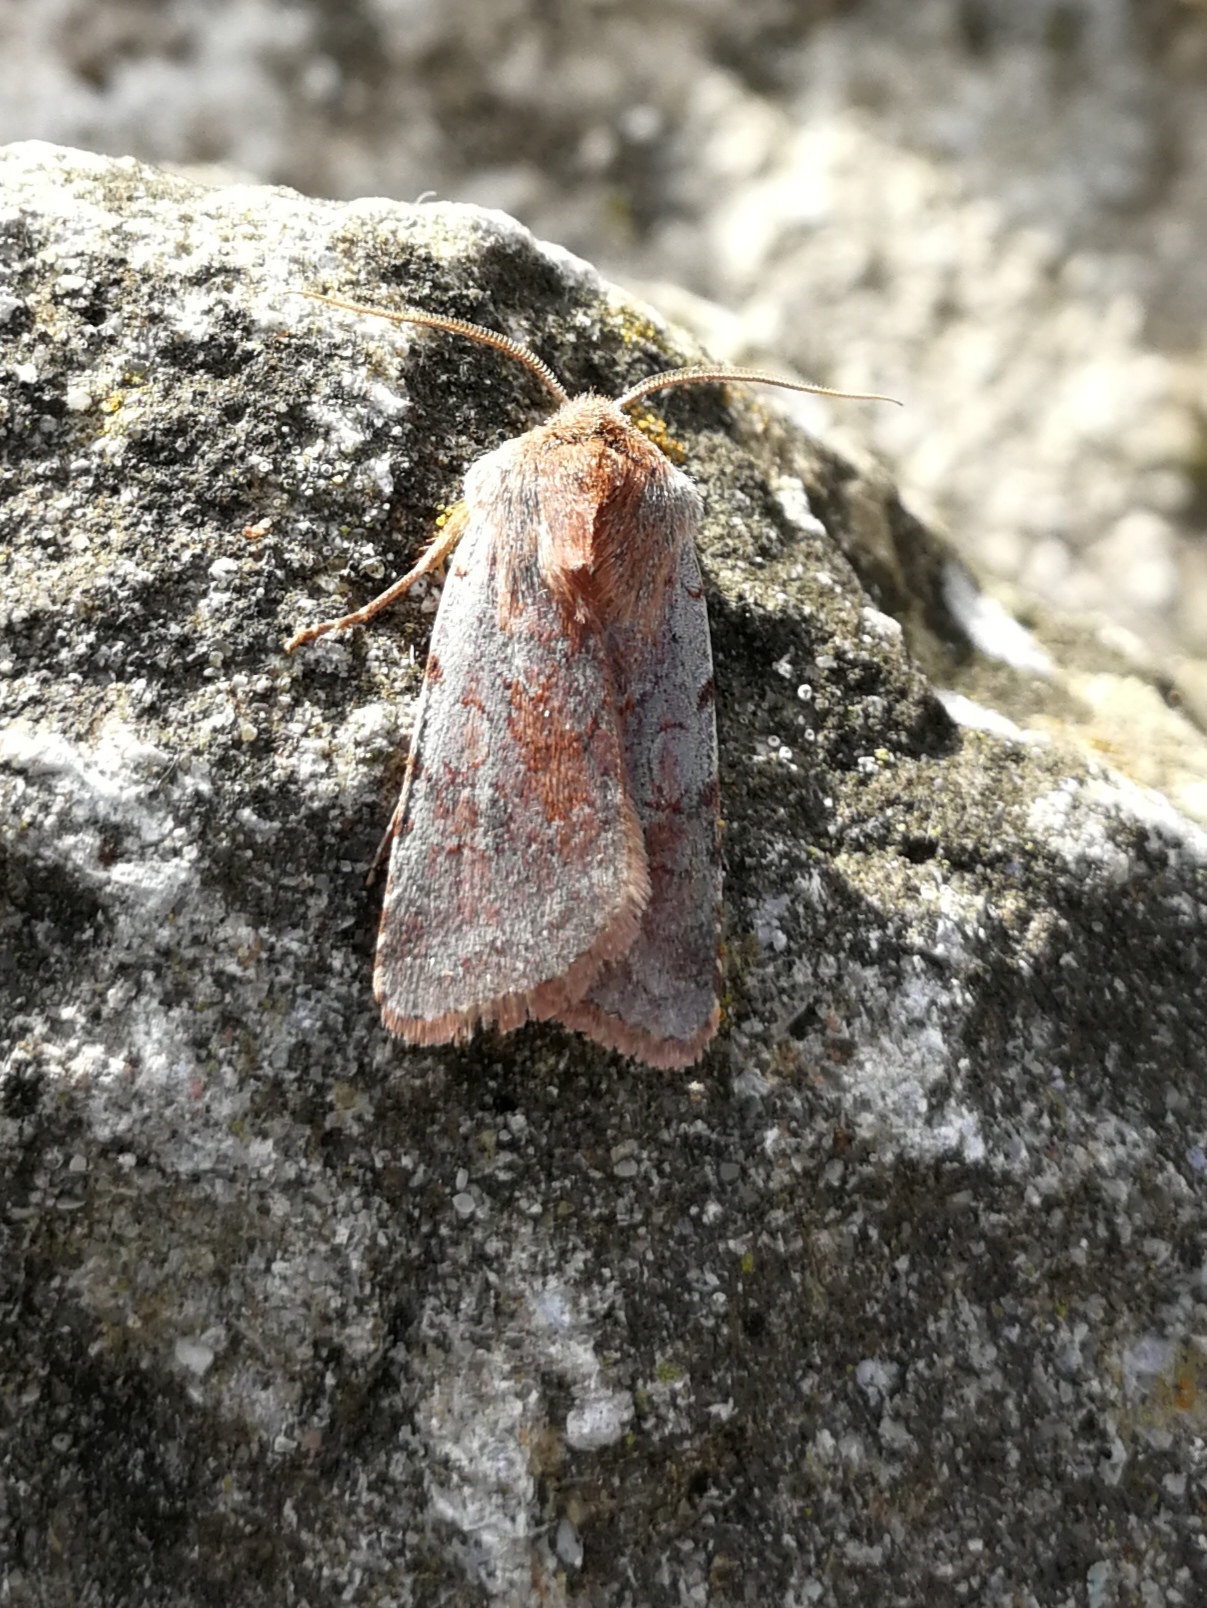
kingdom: Animalia
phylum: Arthropoda
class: Insecta
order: Lepidoptera
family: Noctuidae
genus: Cerastis
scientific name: Cerastis rubricosa
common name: Red chestnut
